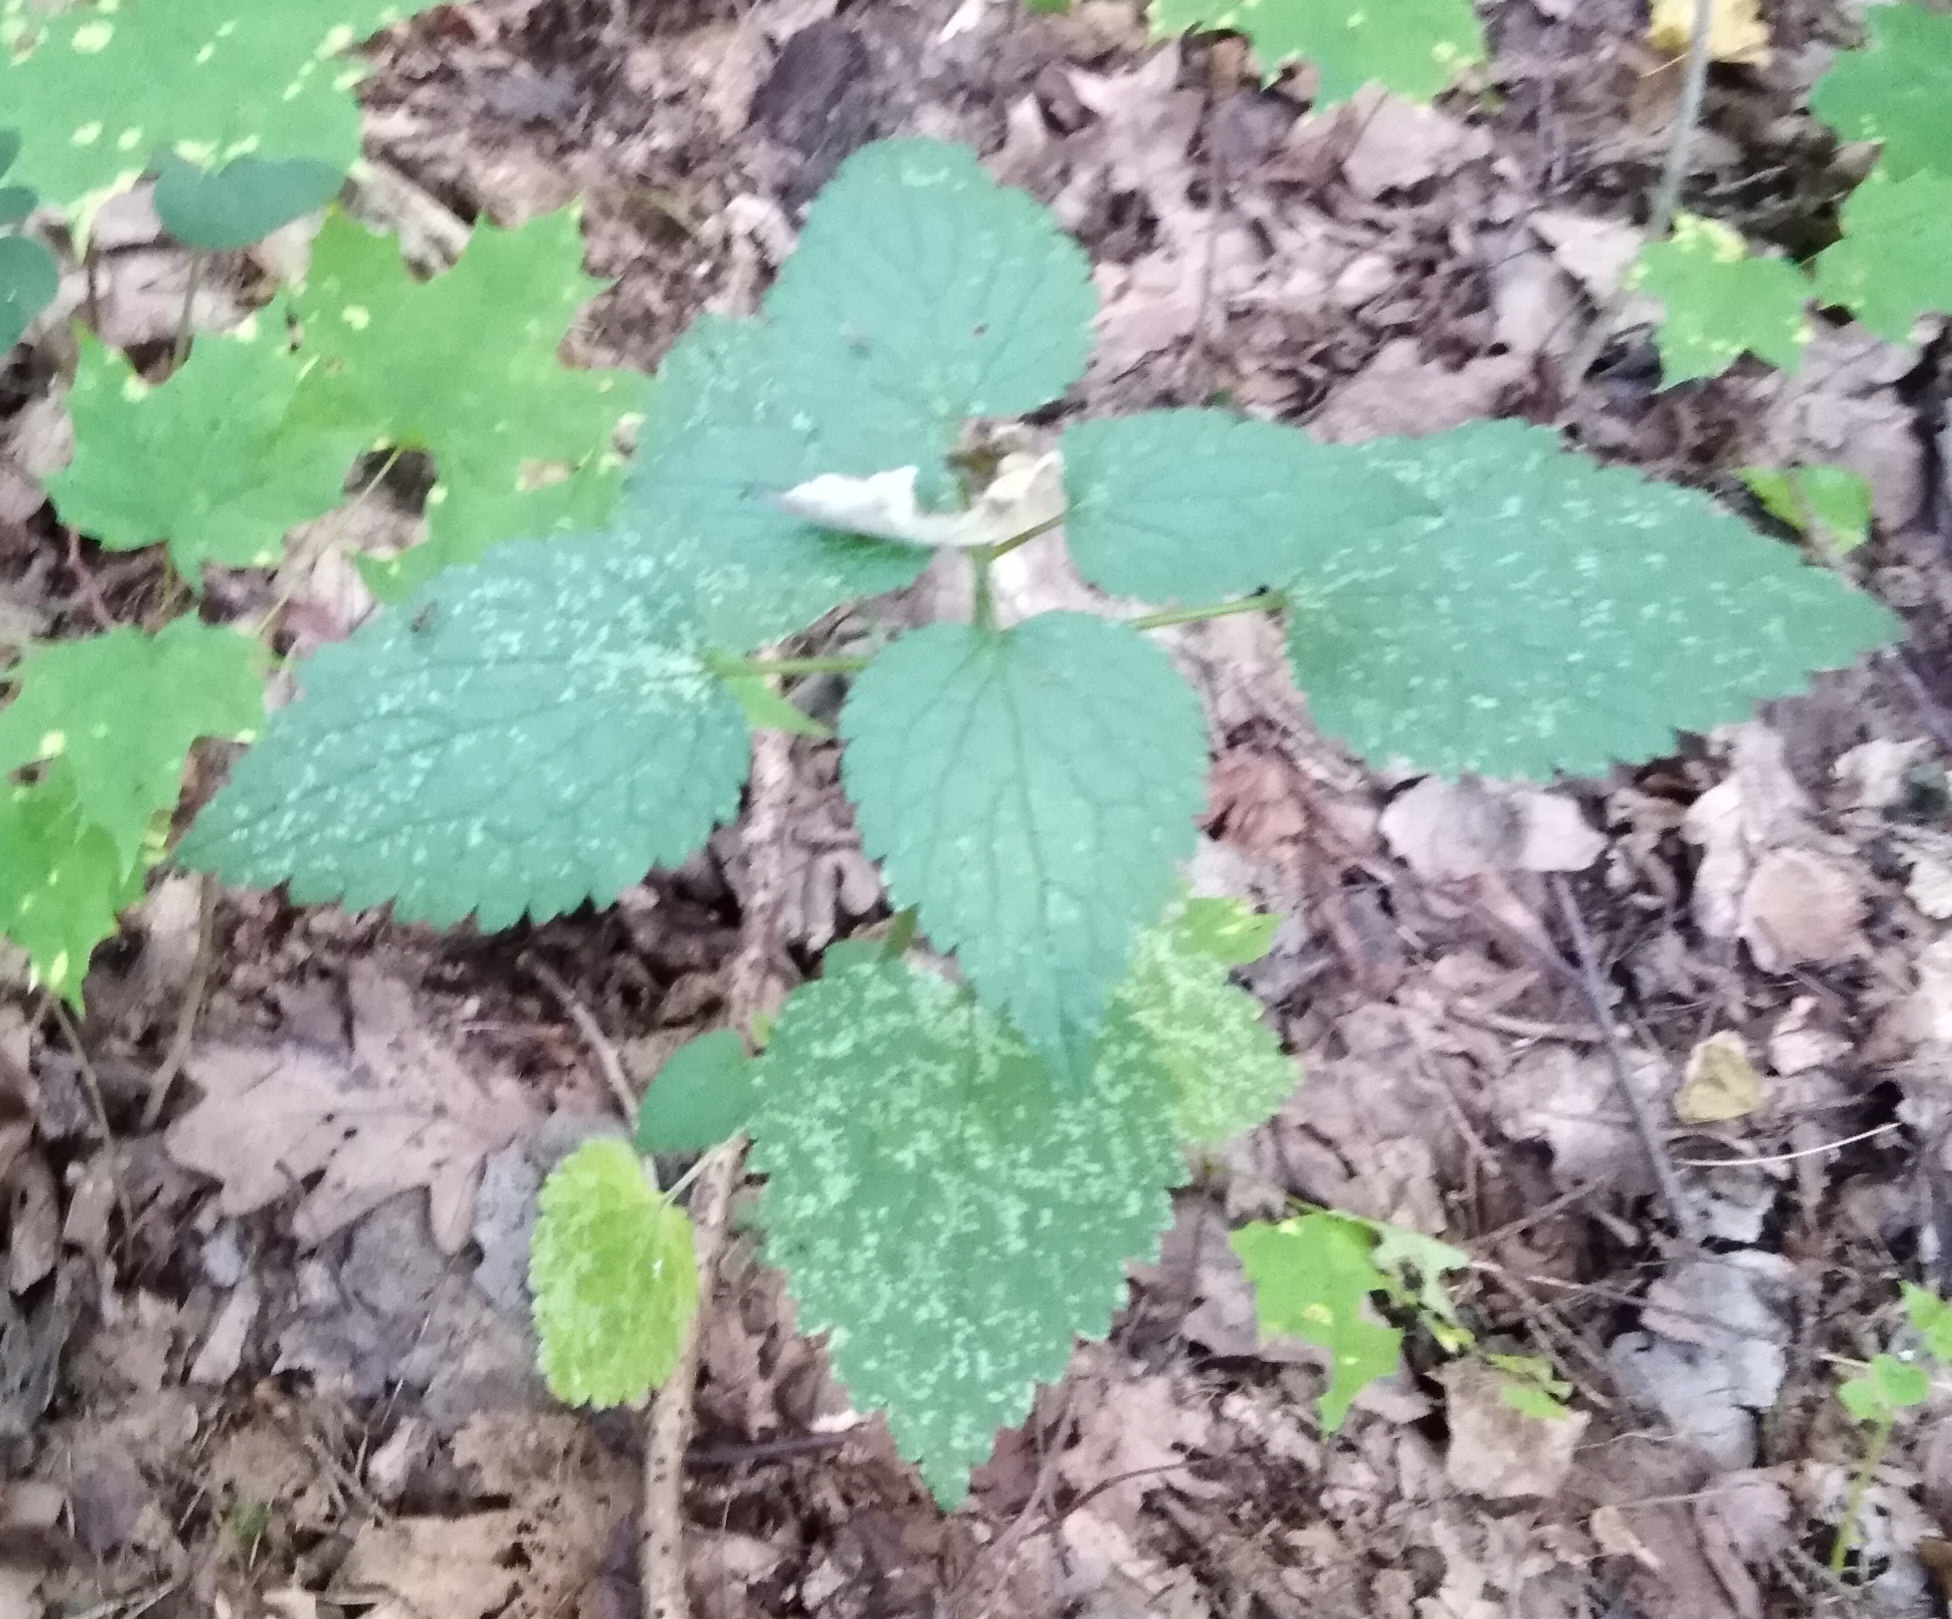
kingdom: Plantae
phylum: Tracheophyta
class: Magnoliopsida
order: Lamiales
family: Lamiaceae
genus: Stachys
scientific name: Stachys sylvatica
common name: Hedge woundwort
